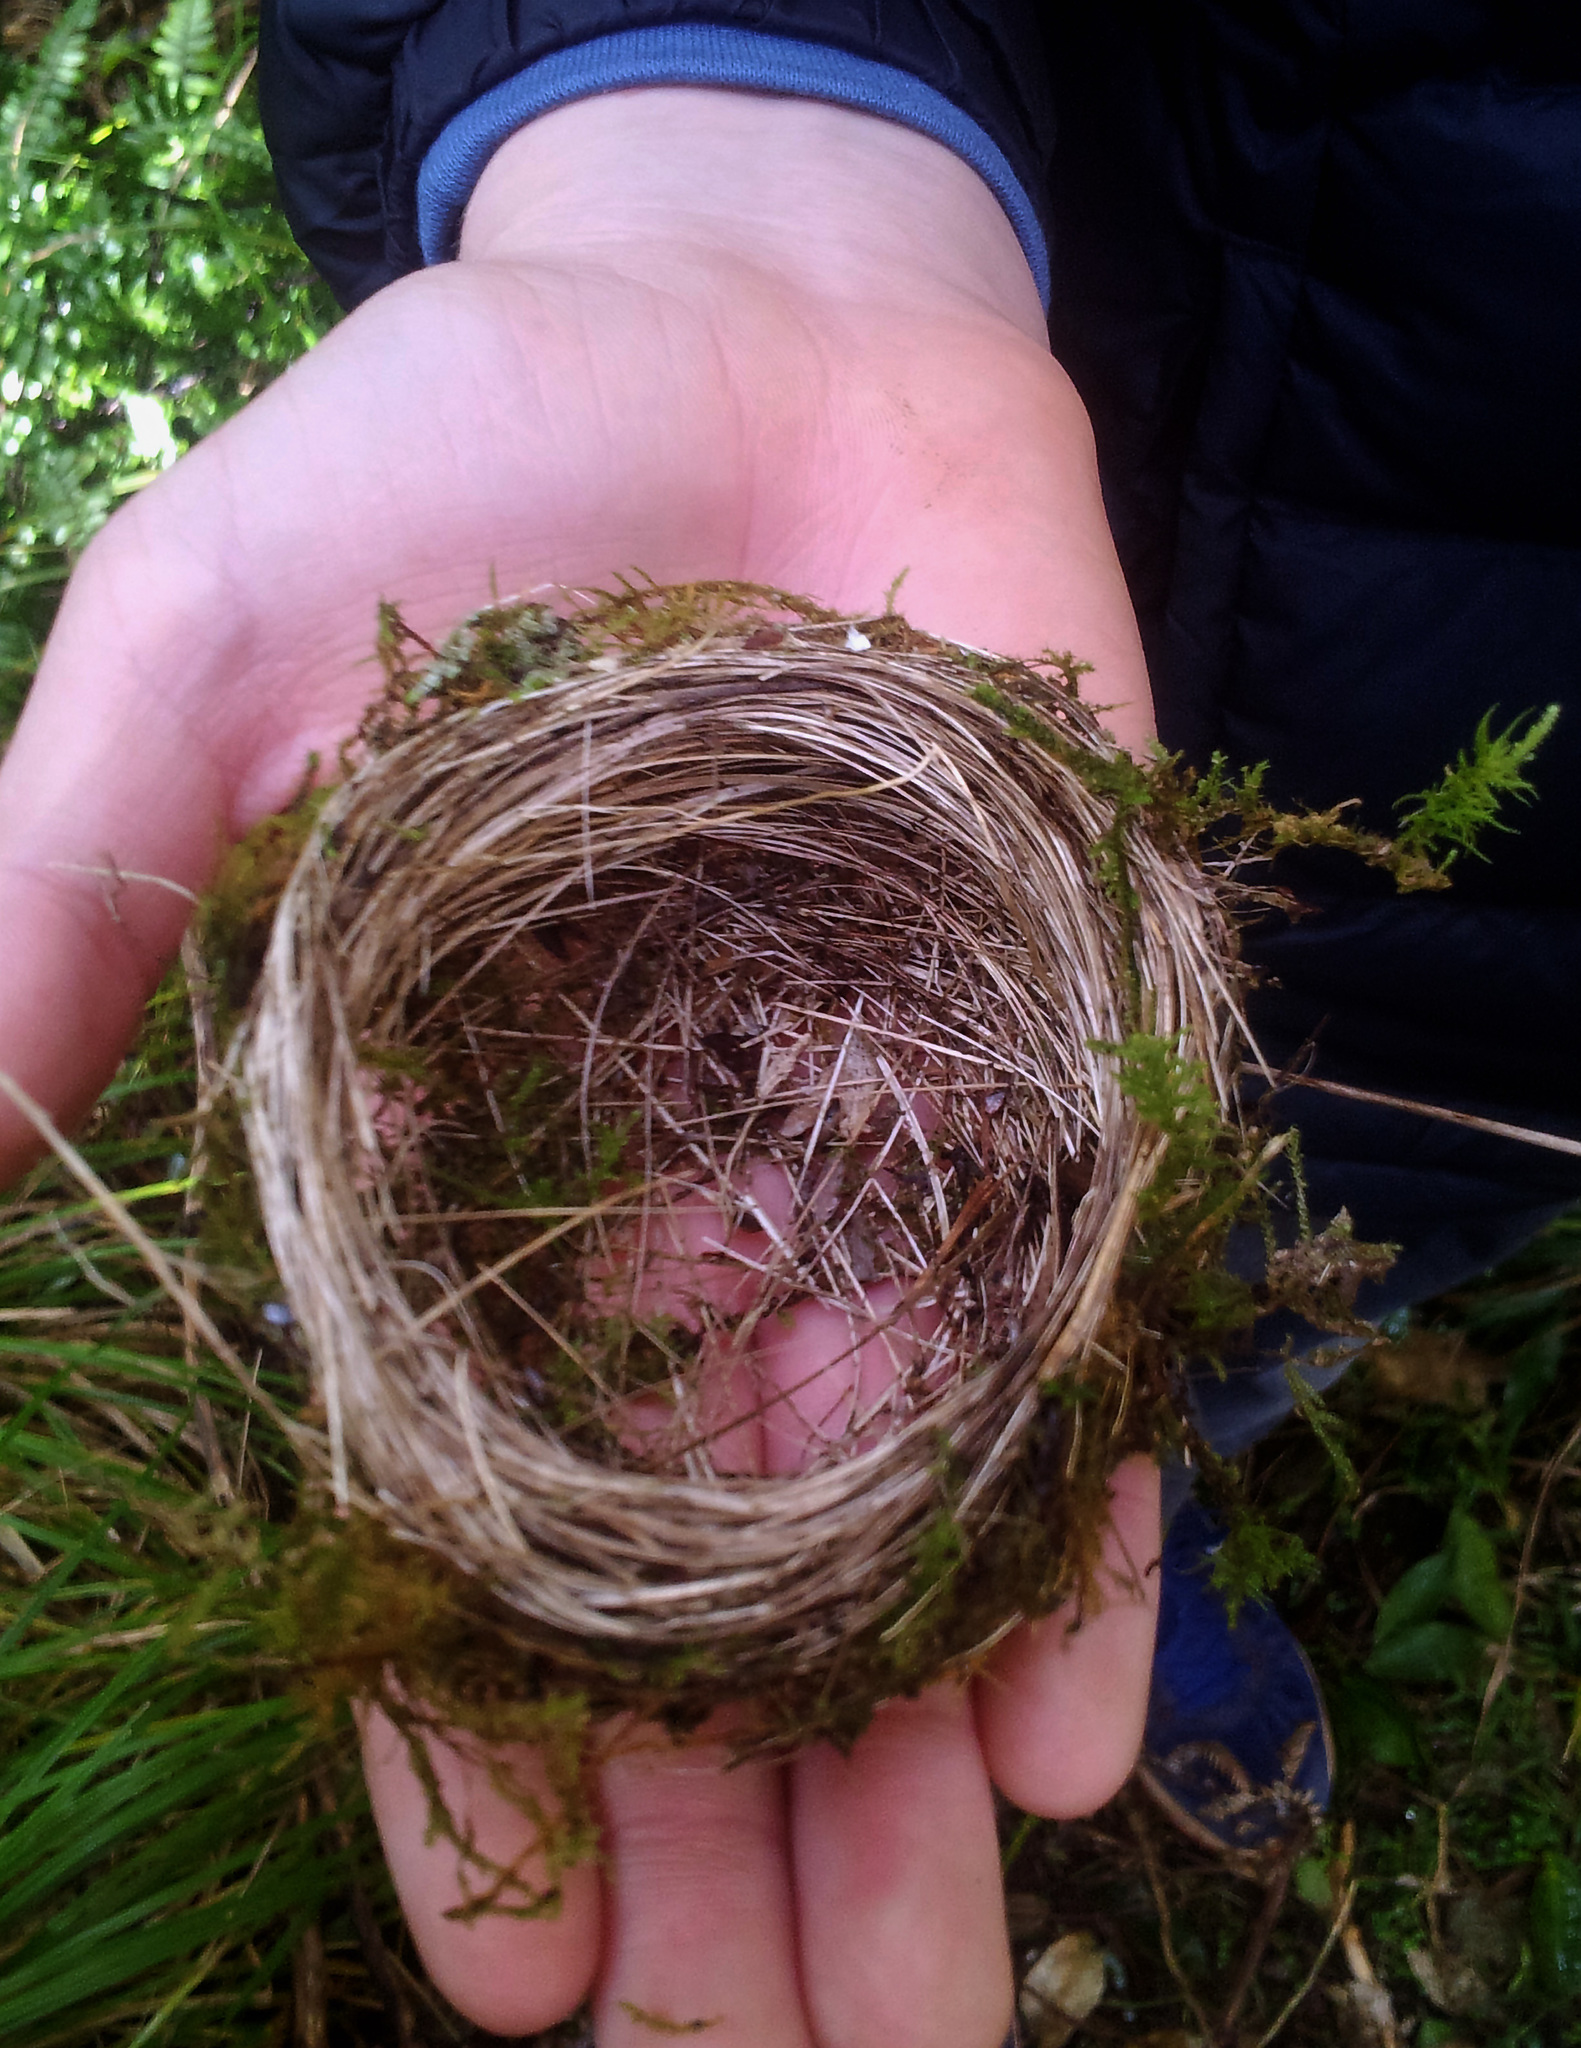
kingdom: Animalia
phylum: Chordata
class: Aves
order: Passeriformes
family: Zosteropidae
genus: Zosterops
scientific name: Zosterops lateralis
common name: Silvereye
